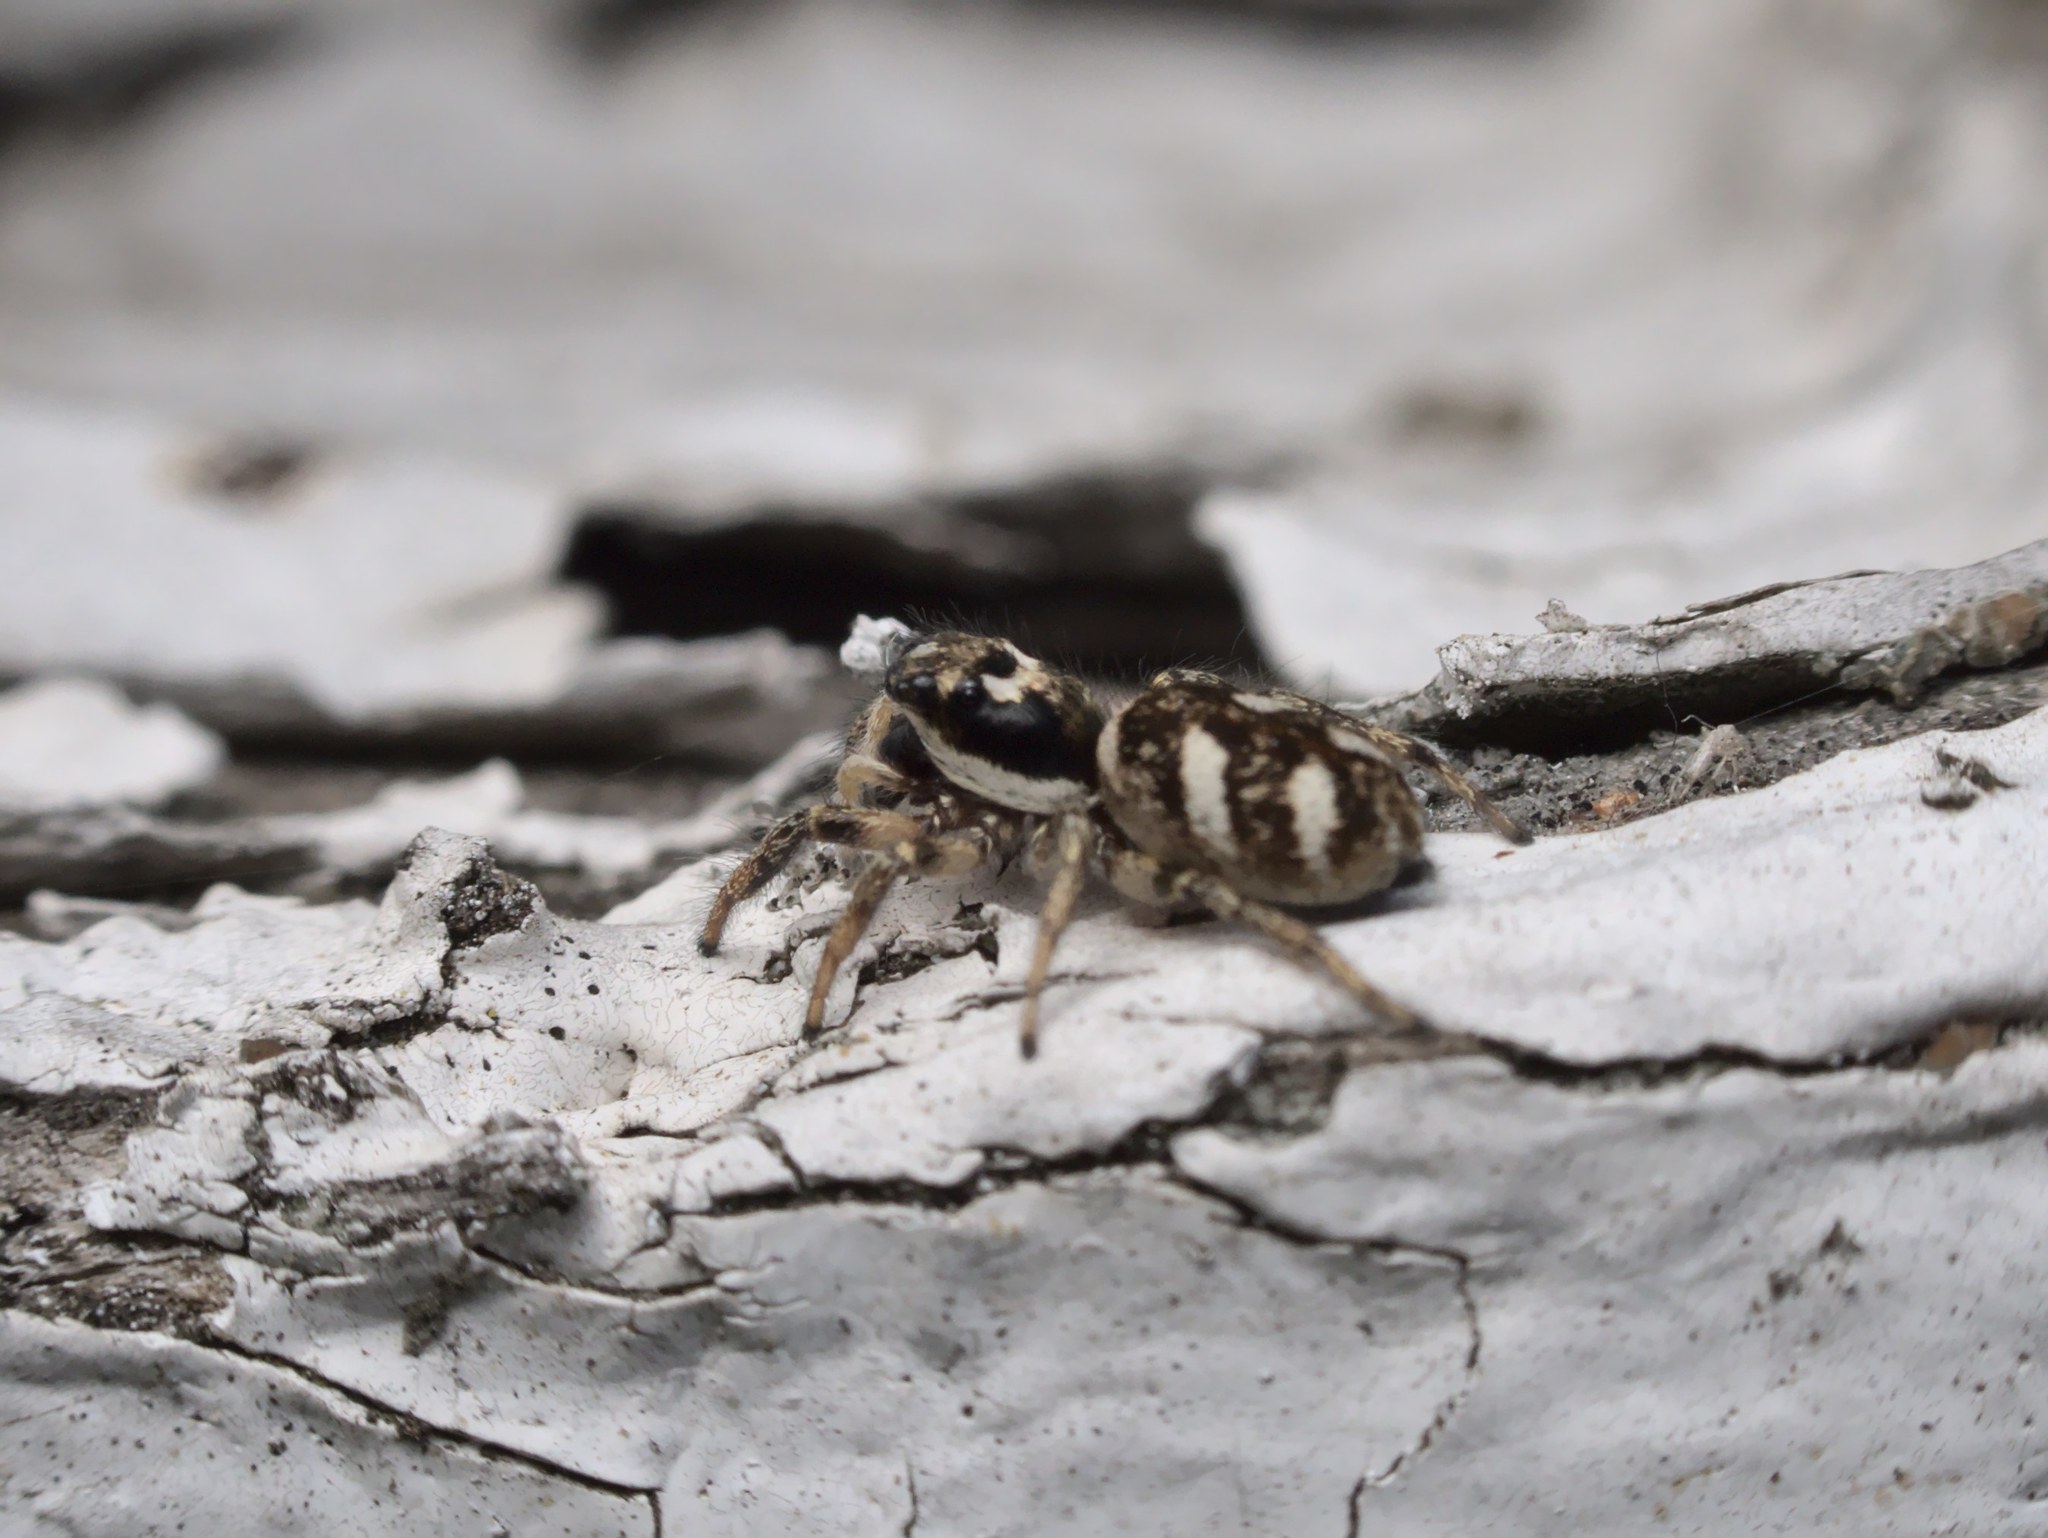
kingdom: Animalia
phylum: Arthropoda
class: Arachnida
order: Araneae
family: Salticidae
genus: Salticus
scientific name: Salticus scenicus
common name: Zebra jumper
